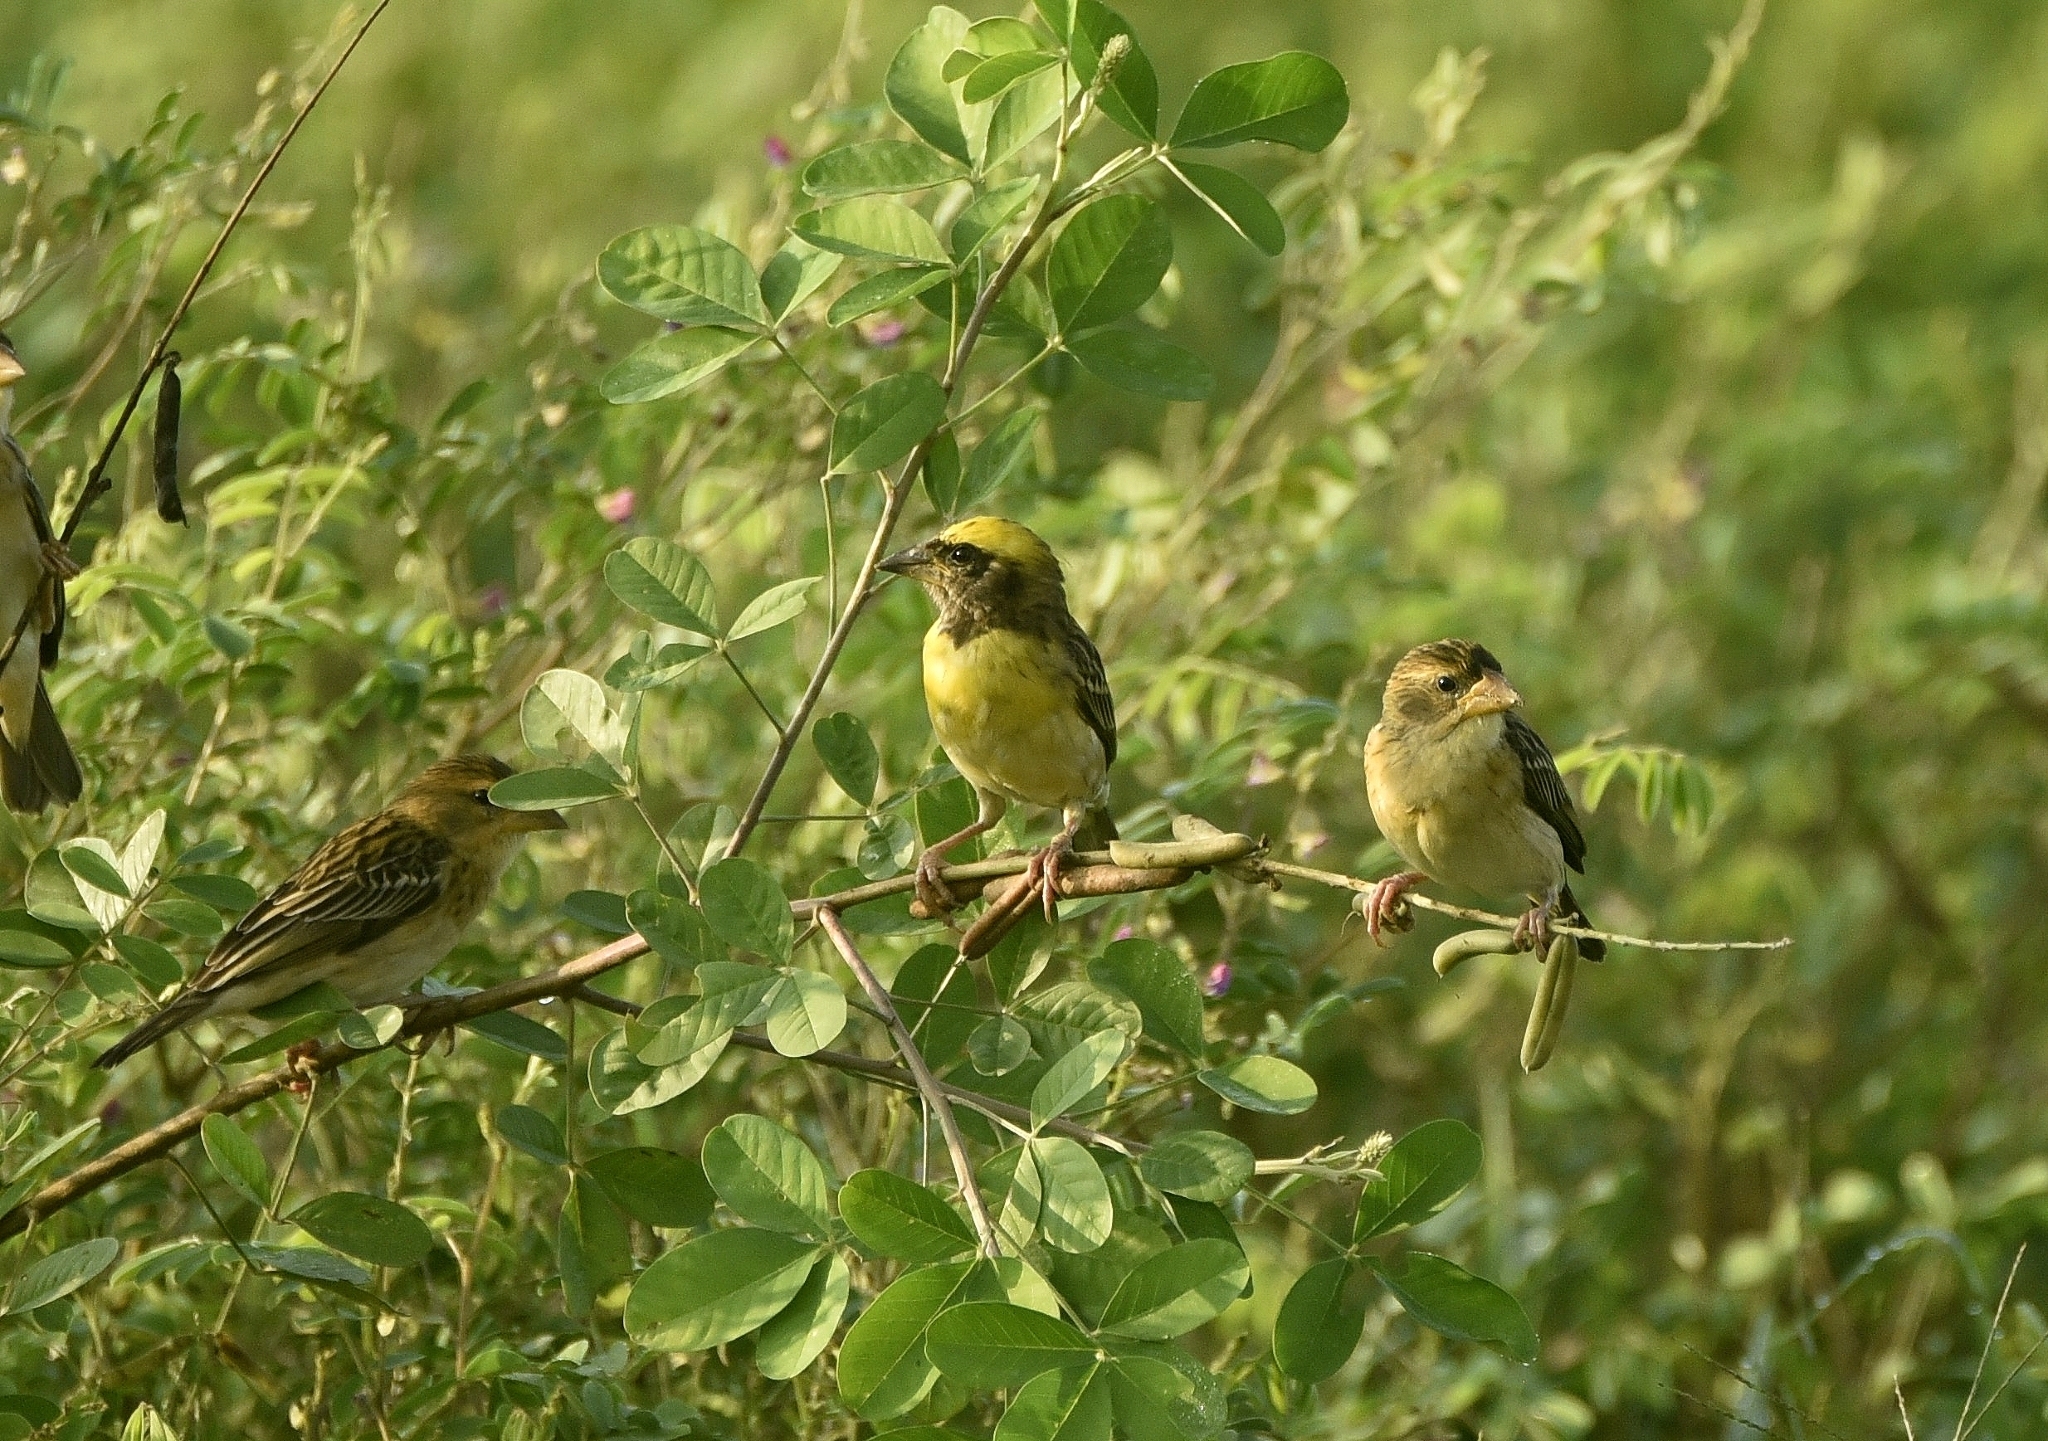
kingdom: Animalia
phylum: Chordata
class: Aves
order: Passeriformes
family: Ploceidae
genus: Ploceus
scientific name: Ploceus philippinus
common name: Baya weaver
